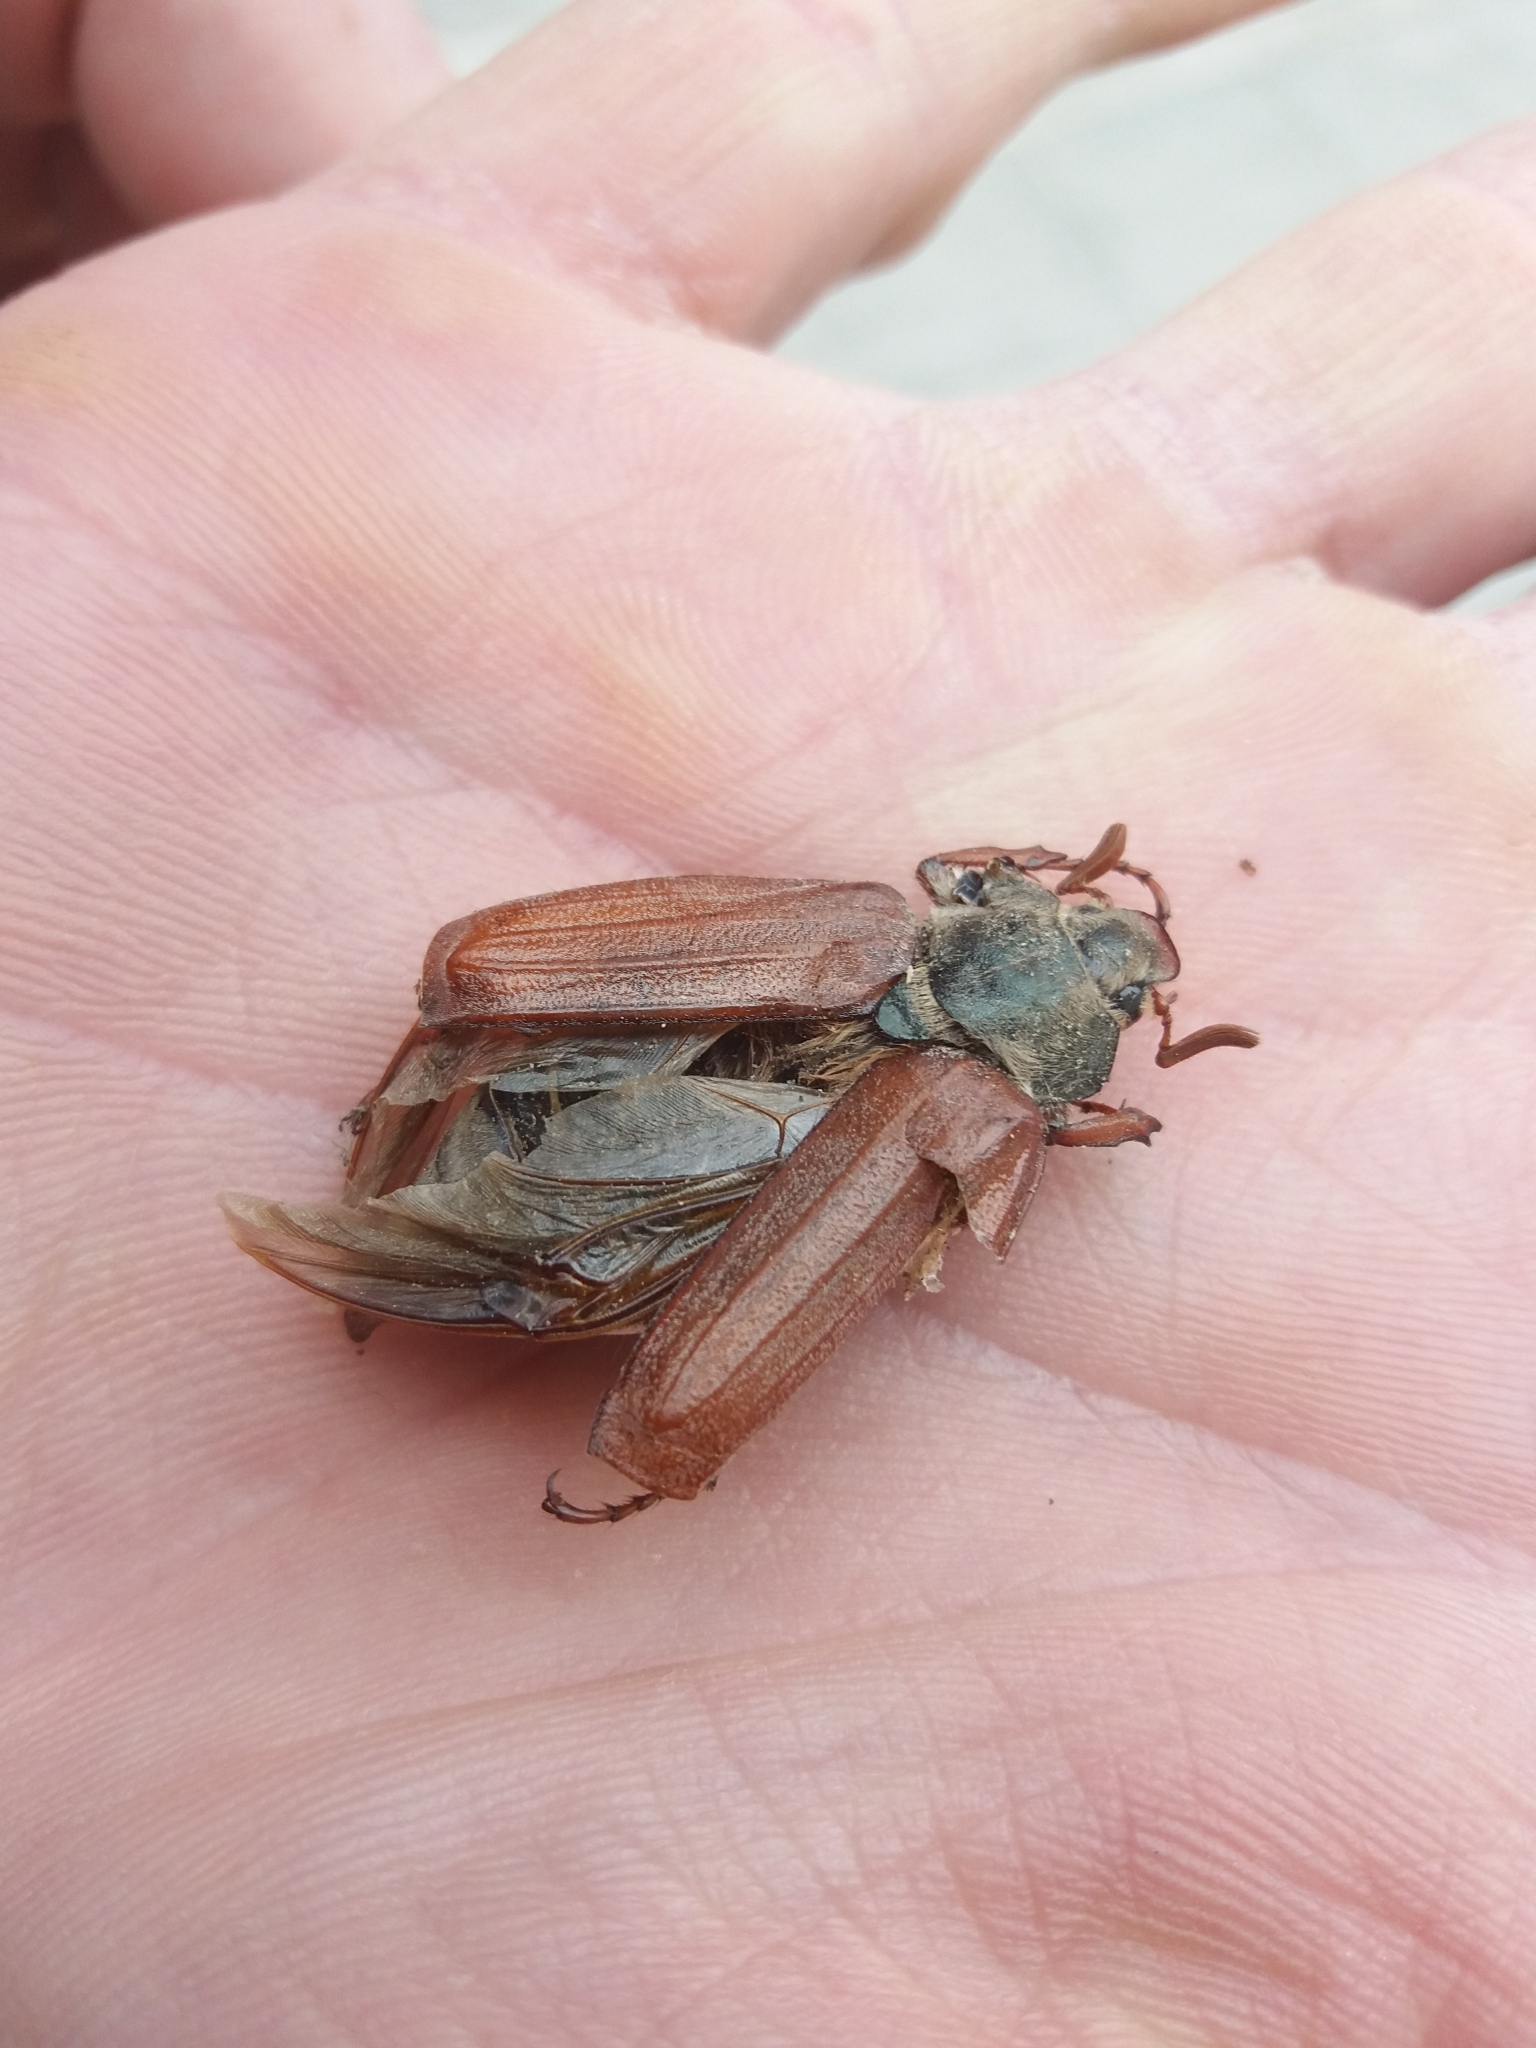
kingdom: Animalia
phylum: Arthropoda
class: Insecta
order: Coleoptera
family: Scarabaeidae
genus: Melolontha
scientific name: Melolontha melolontha
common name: Cockchafer maybeetle
